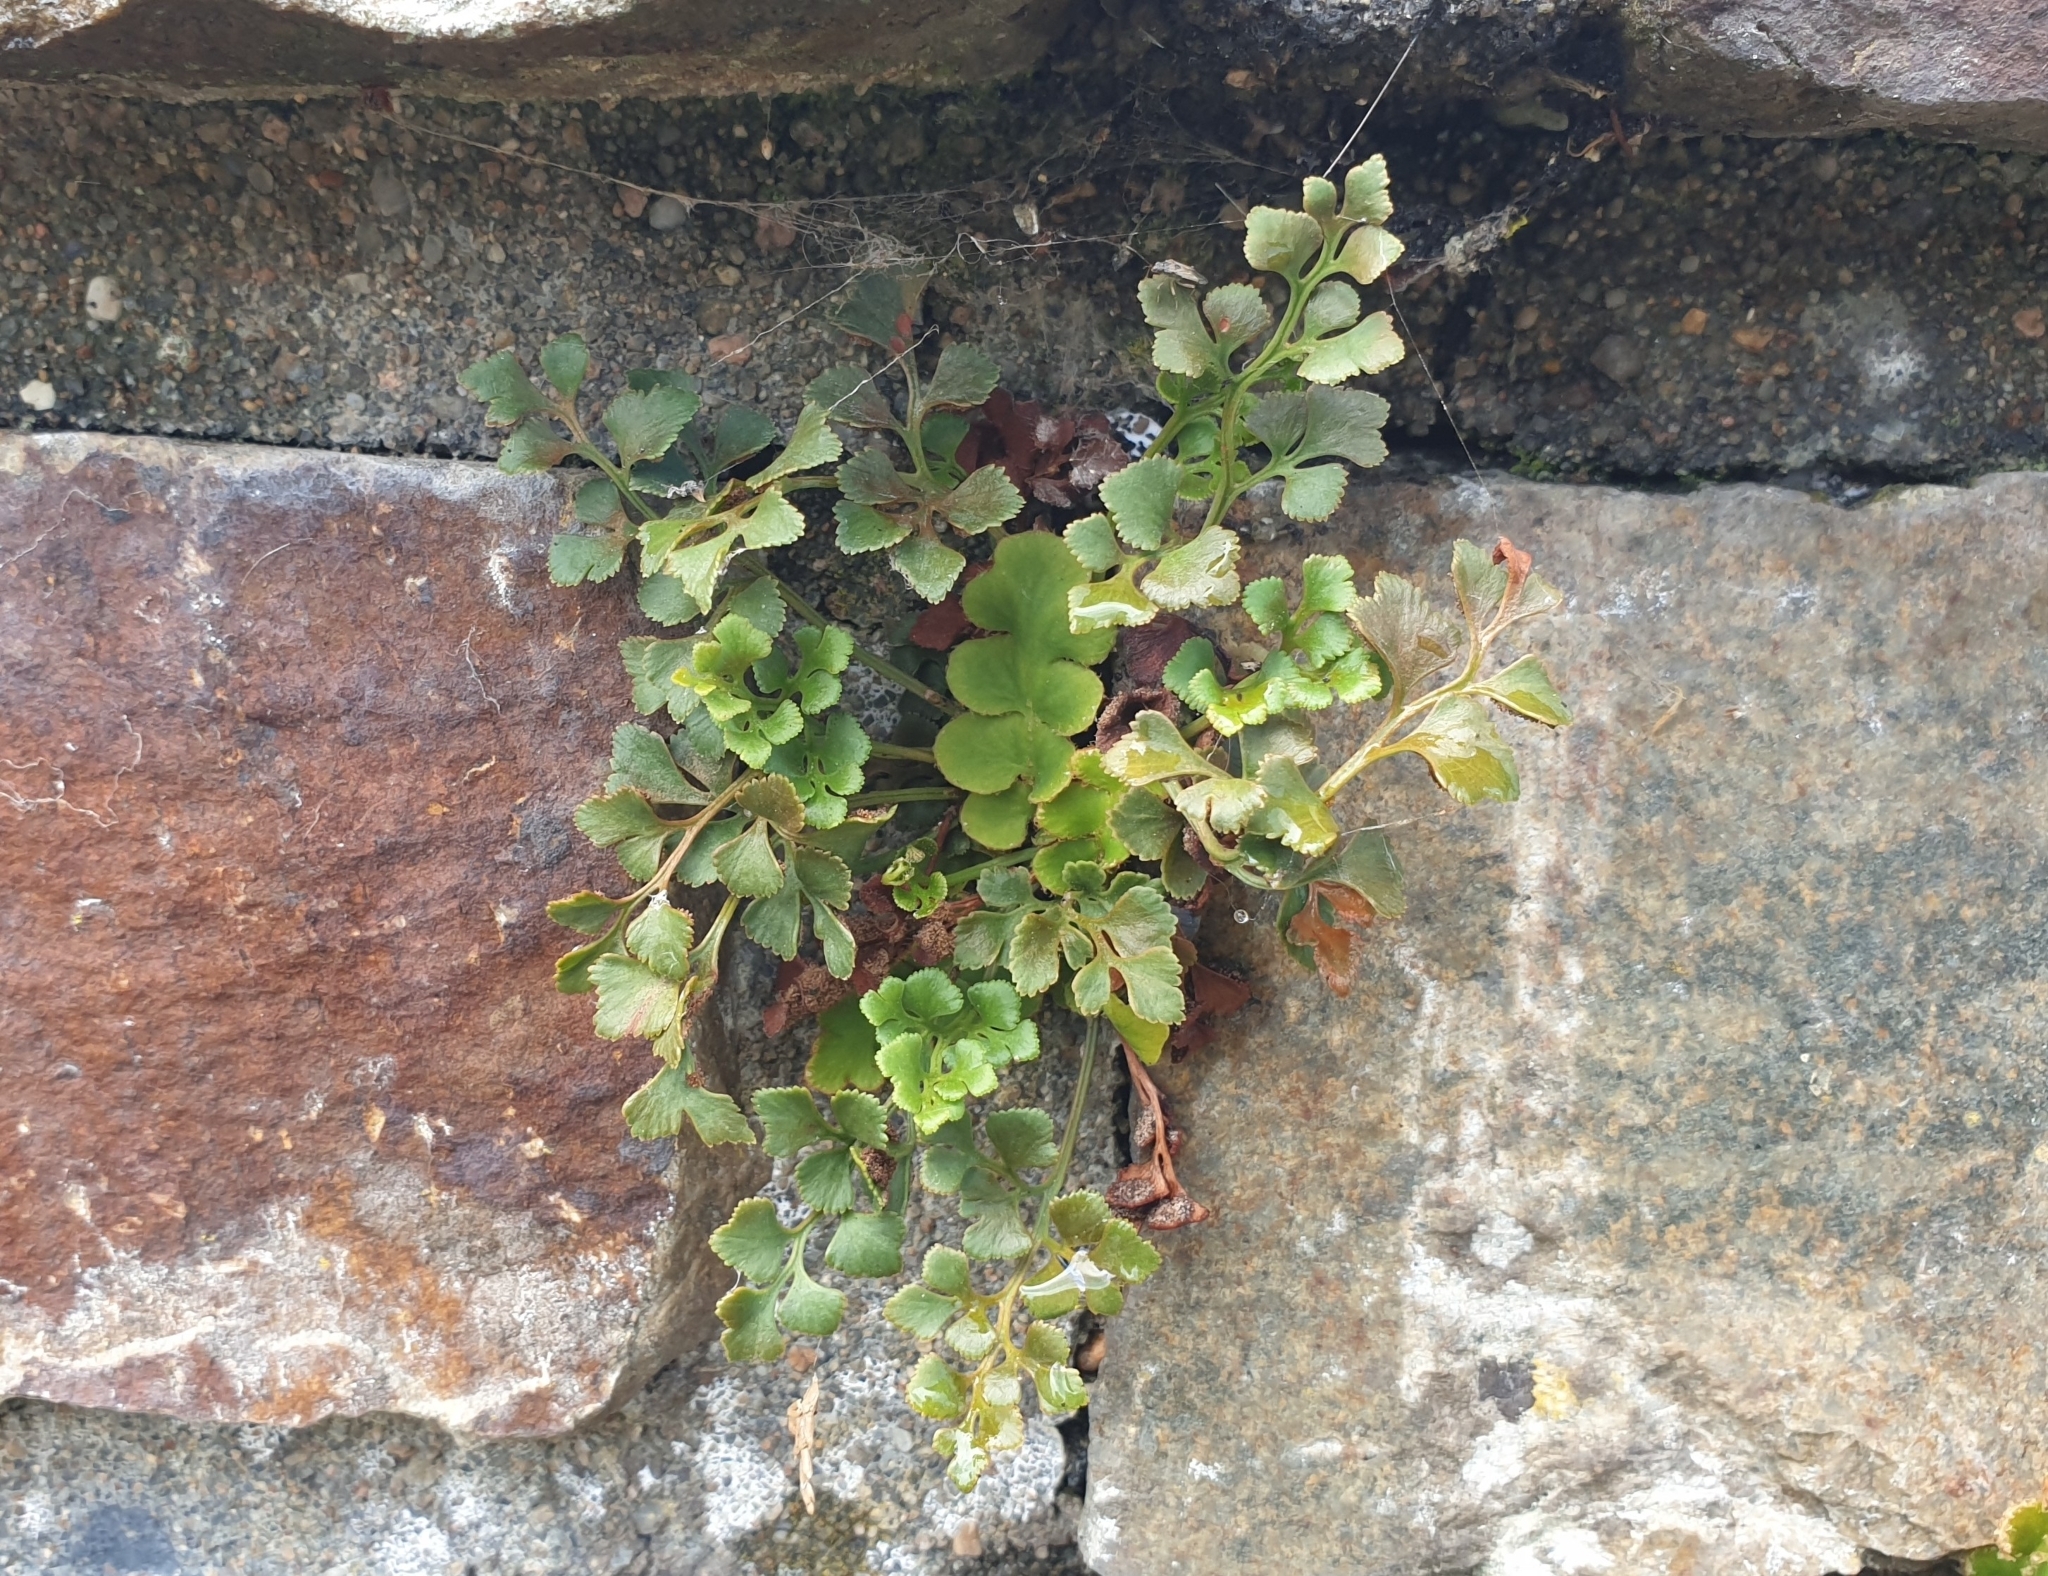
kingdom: Plantae
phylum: Tracheophyta
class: Polypodiopsida
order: Polypodiales
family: Aspleniaceae
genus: Asplenium
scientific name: Asplenium ruta-muraria
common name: Wall-rue
